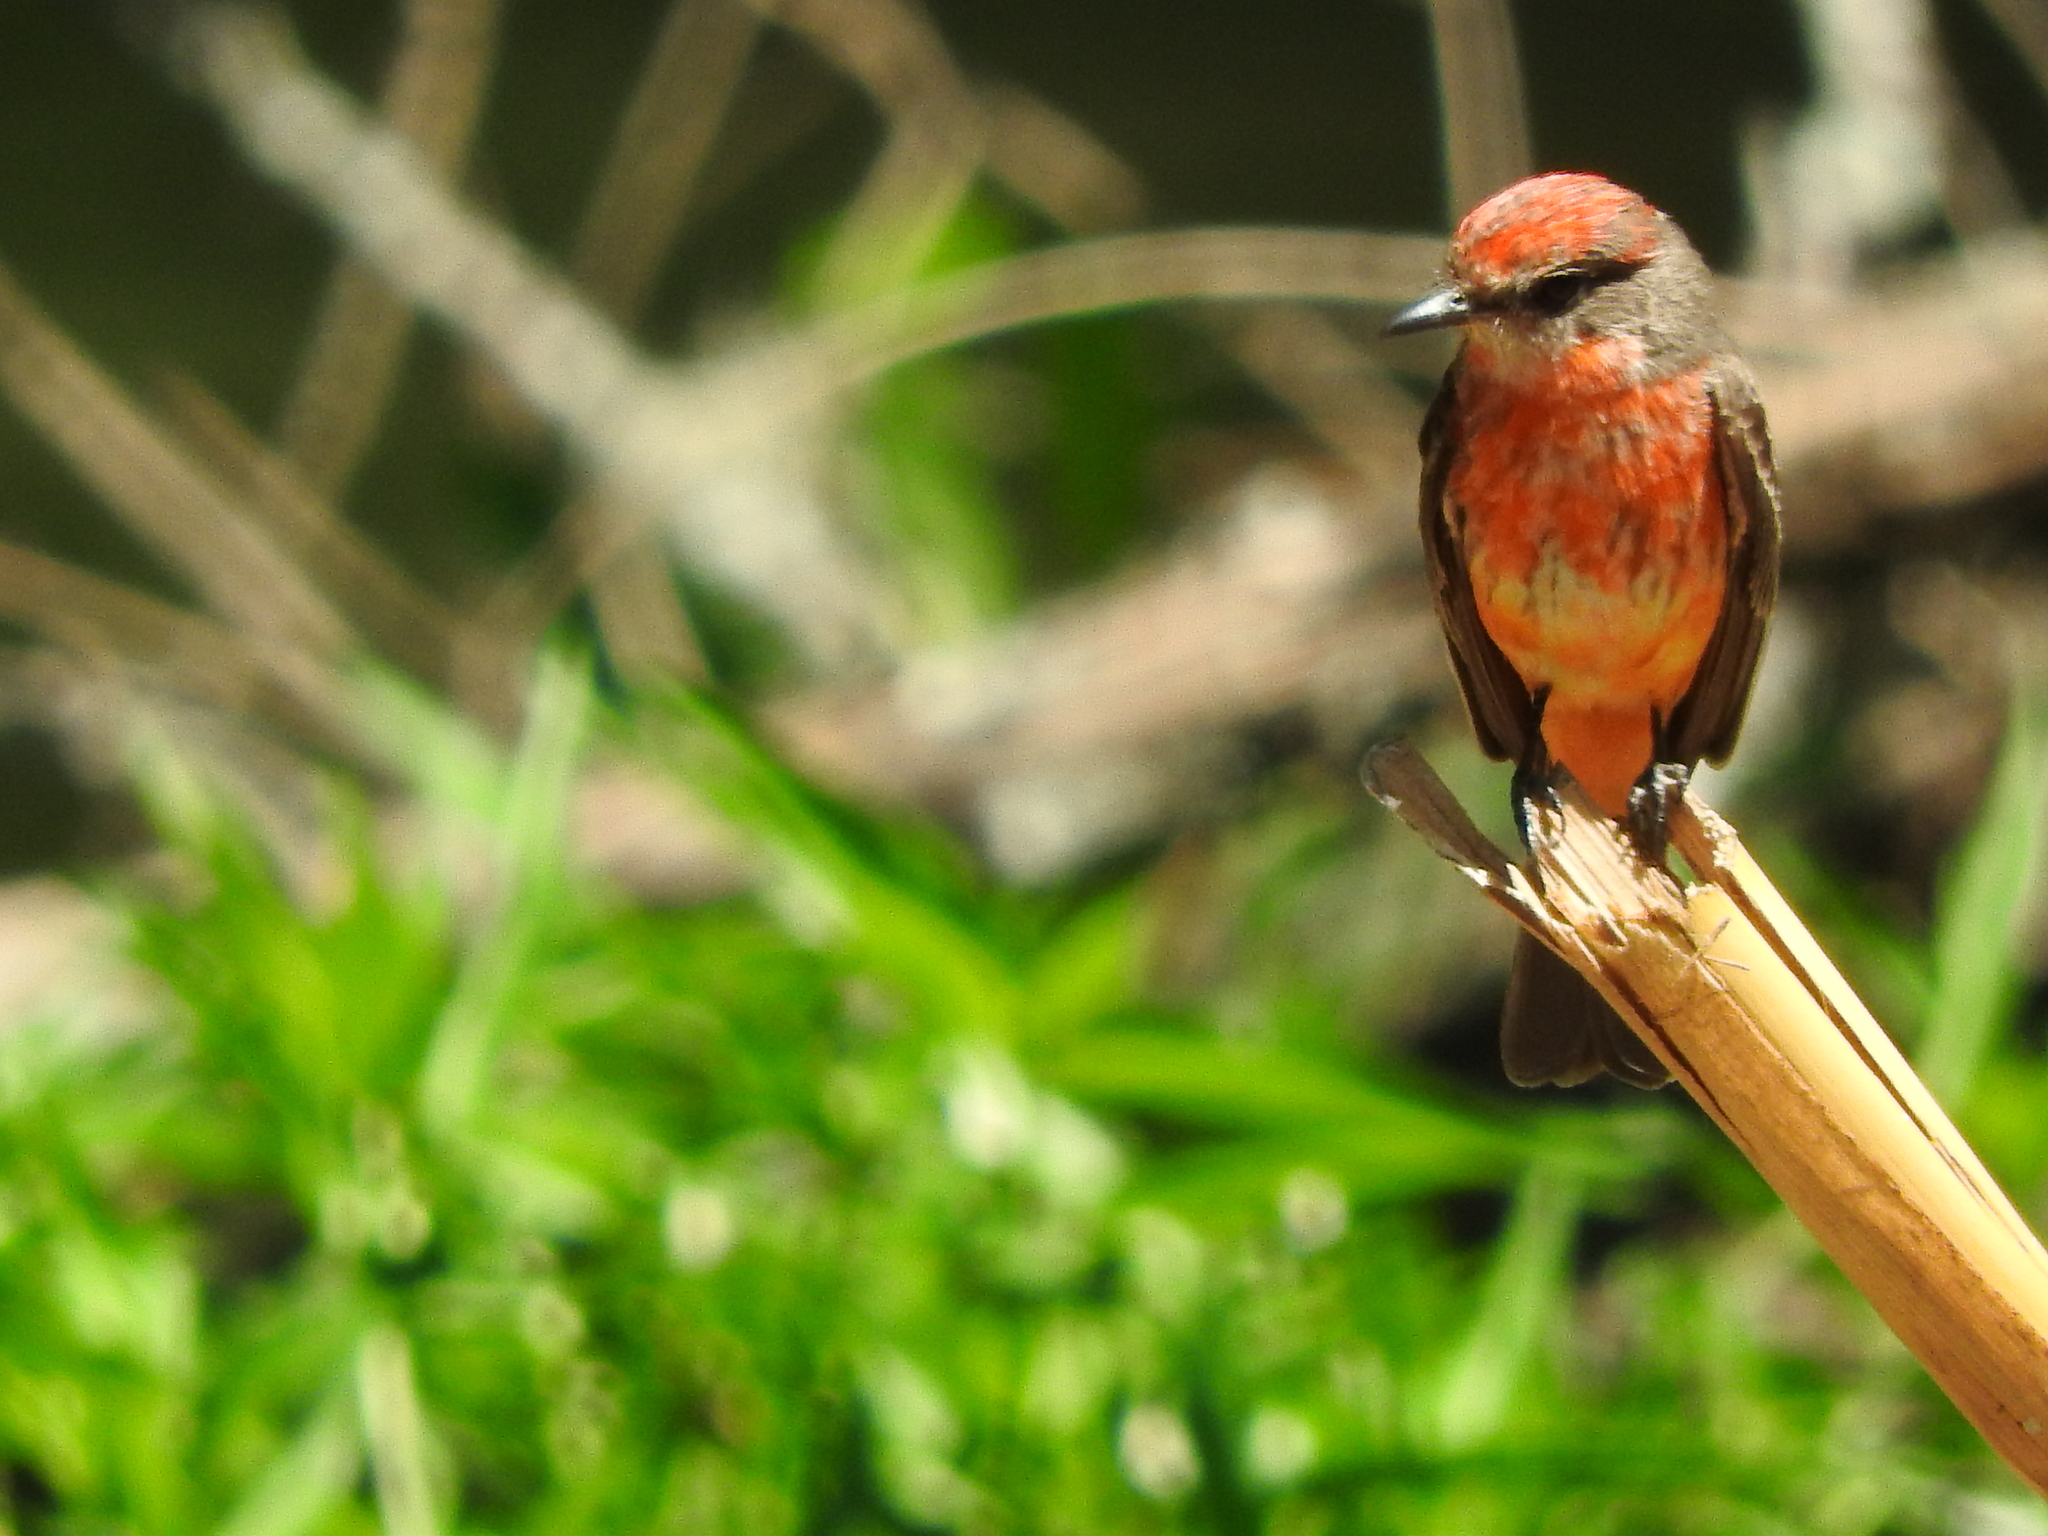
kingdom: Animalia
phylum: Chordata
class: Aves
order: Passeriformes
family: Tyrannidae
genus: Pyrocephalus
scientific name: Pyrocephalus rubinus
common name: Vermilion flycatcher
